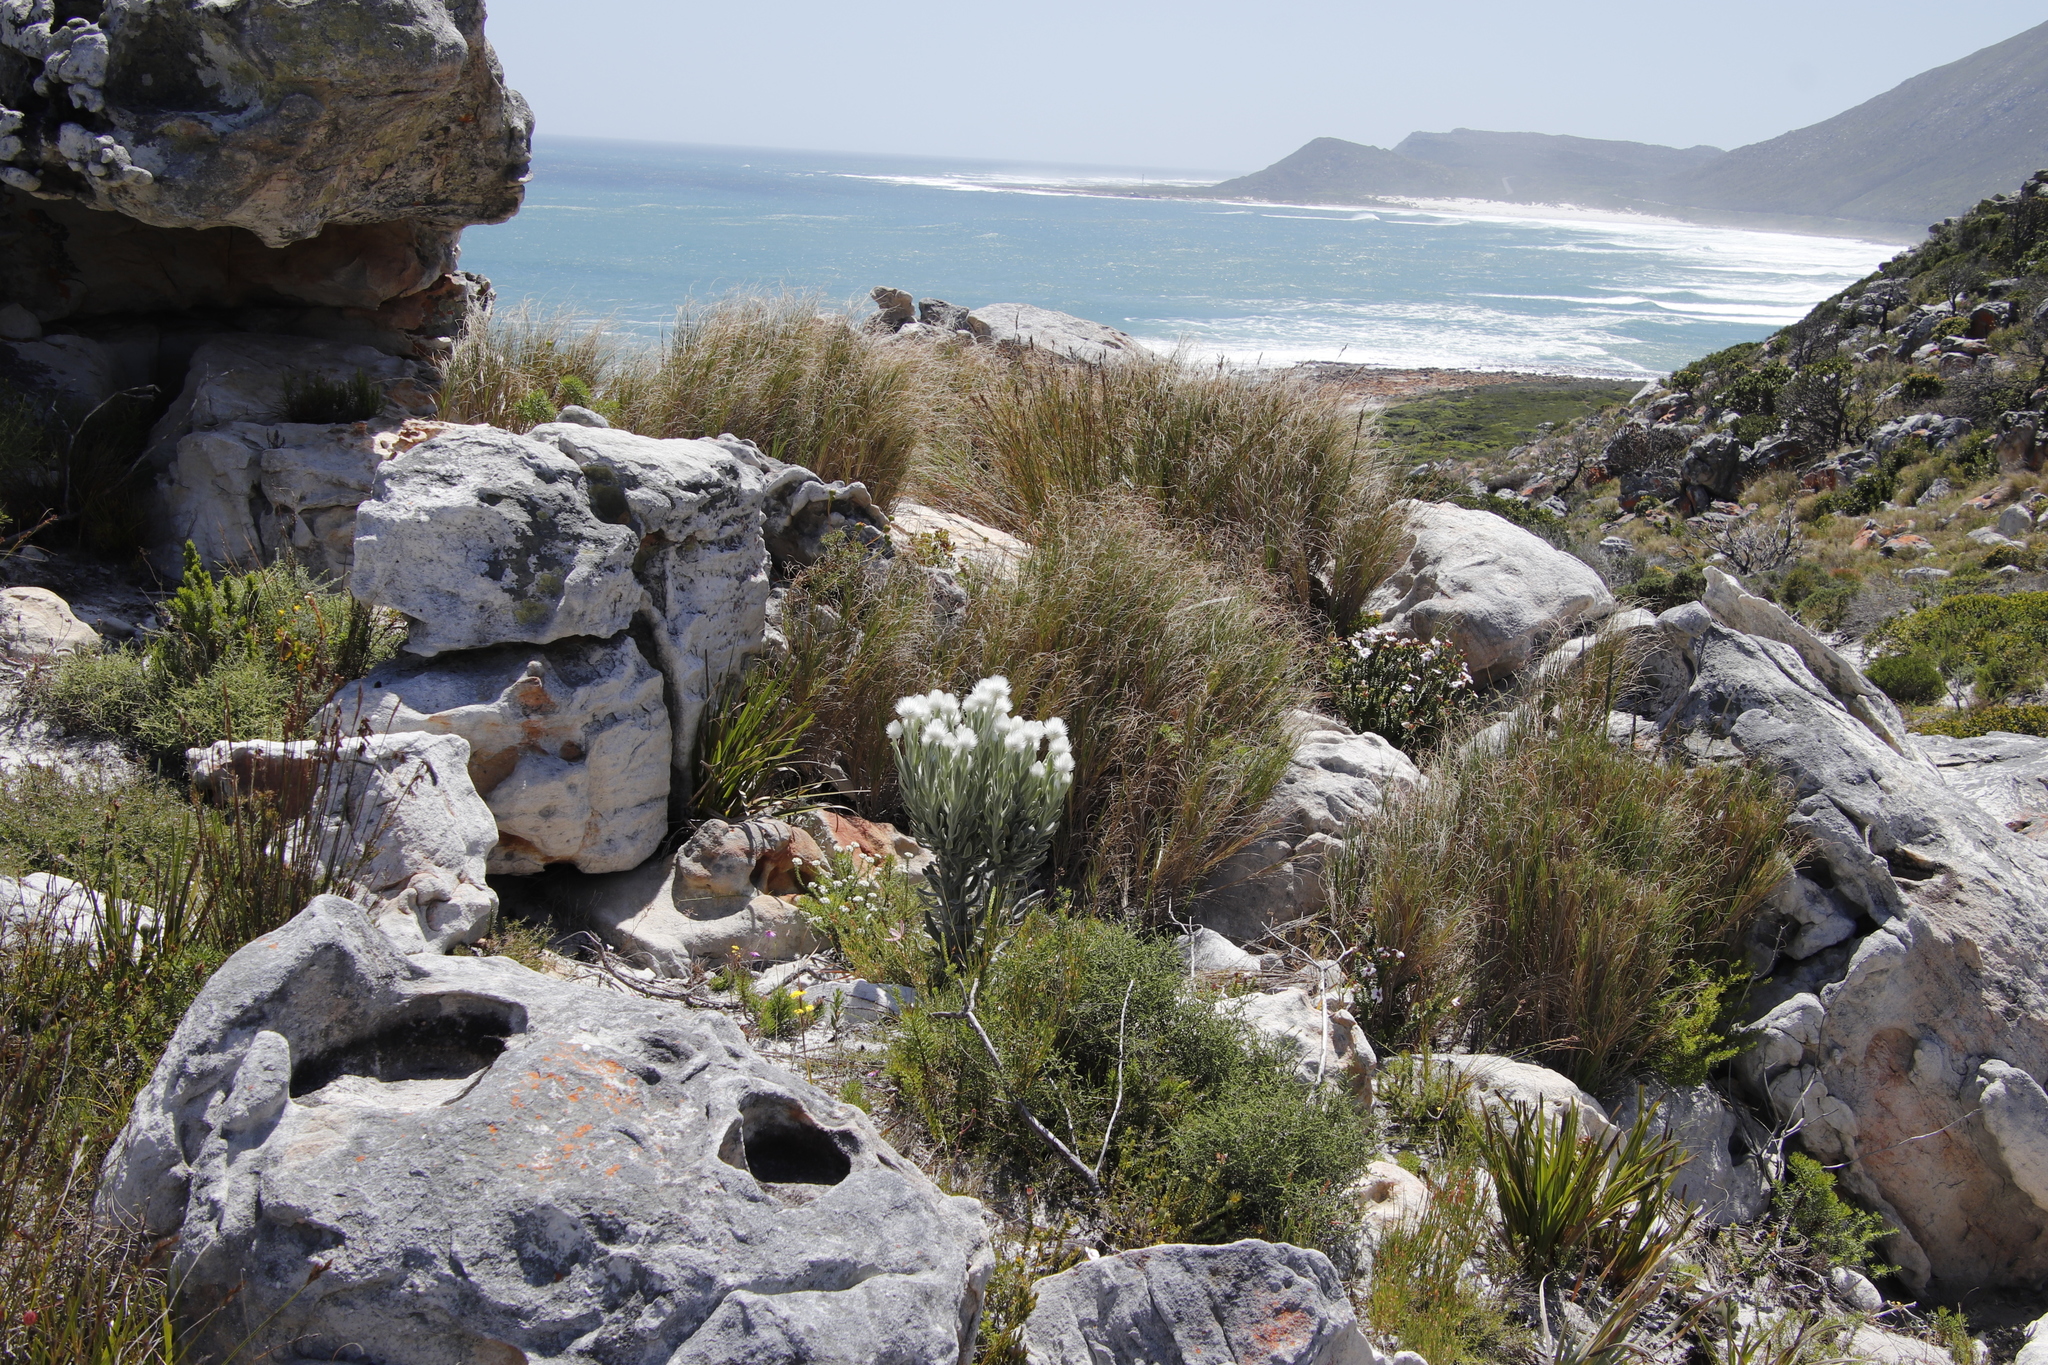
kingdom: Plantae
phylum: Tracheophyta
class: Magnoliopsida
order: Asterales
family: Asteraceae
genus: Syncarpha
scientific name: Syncarpha vestita
